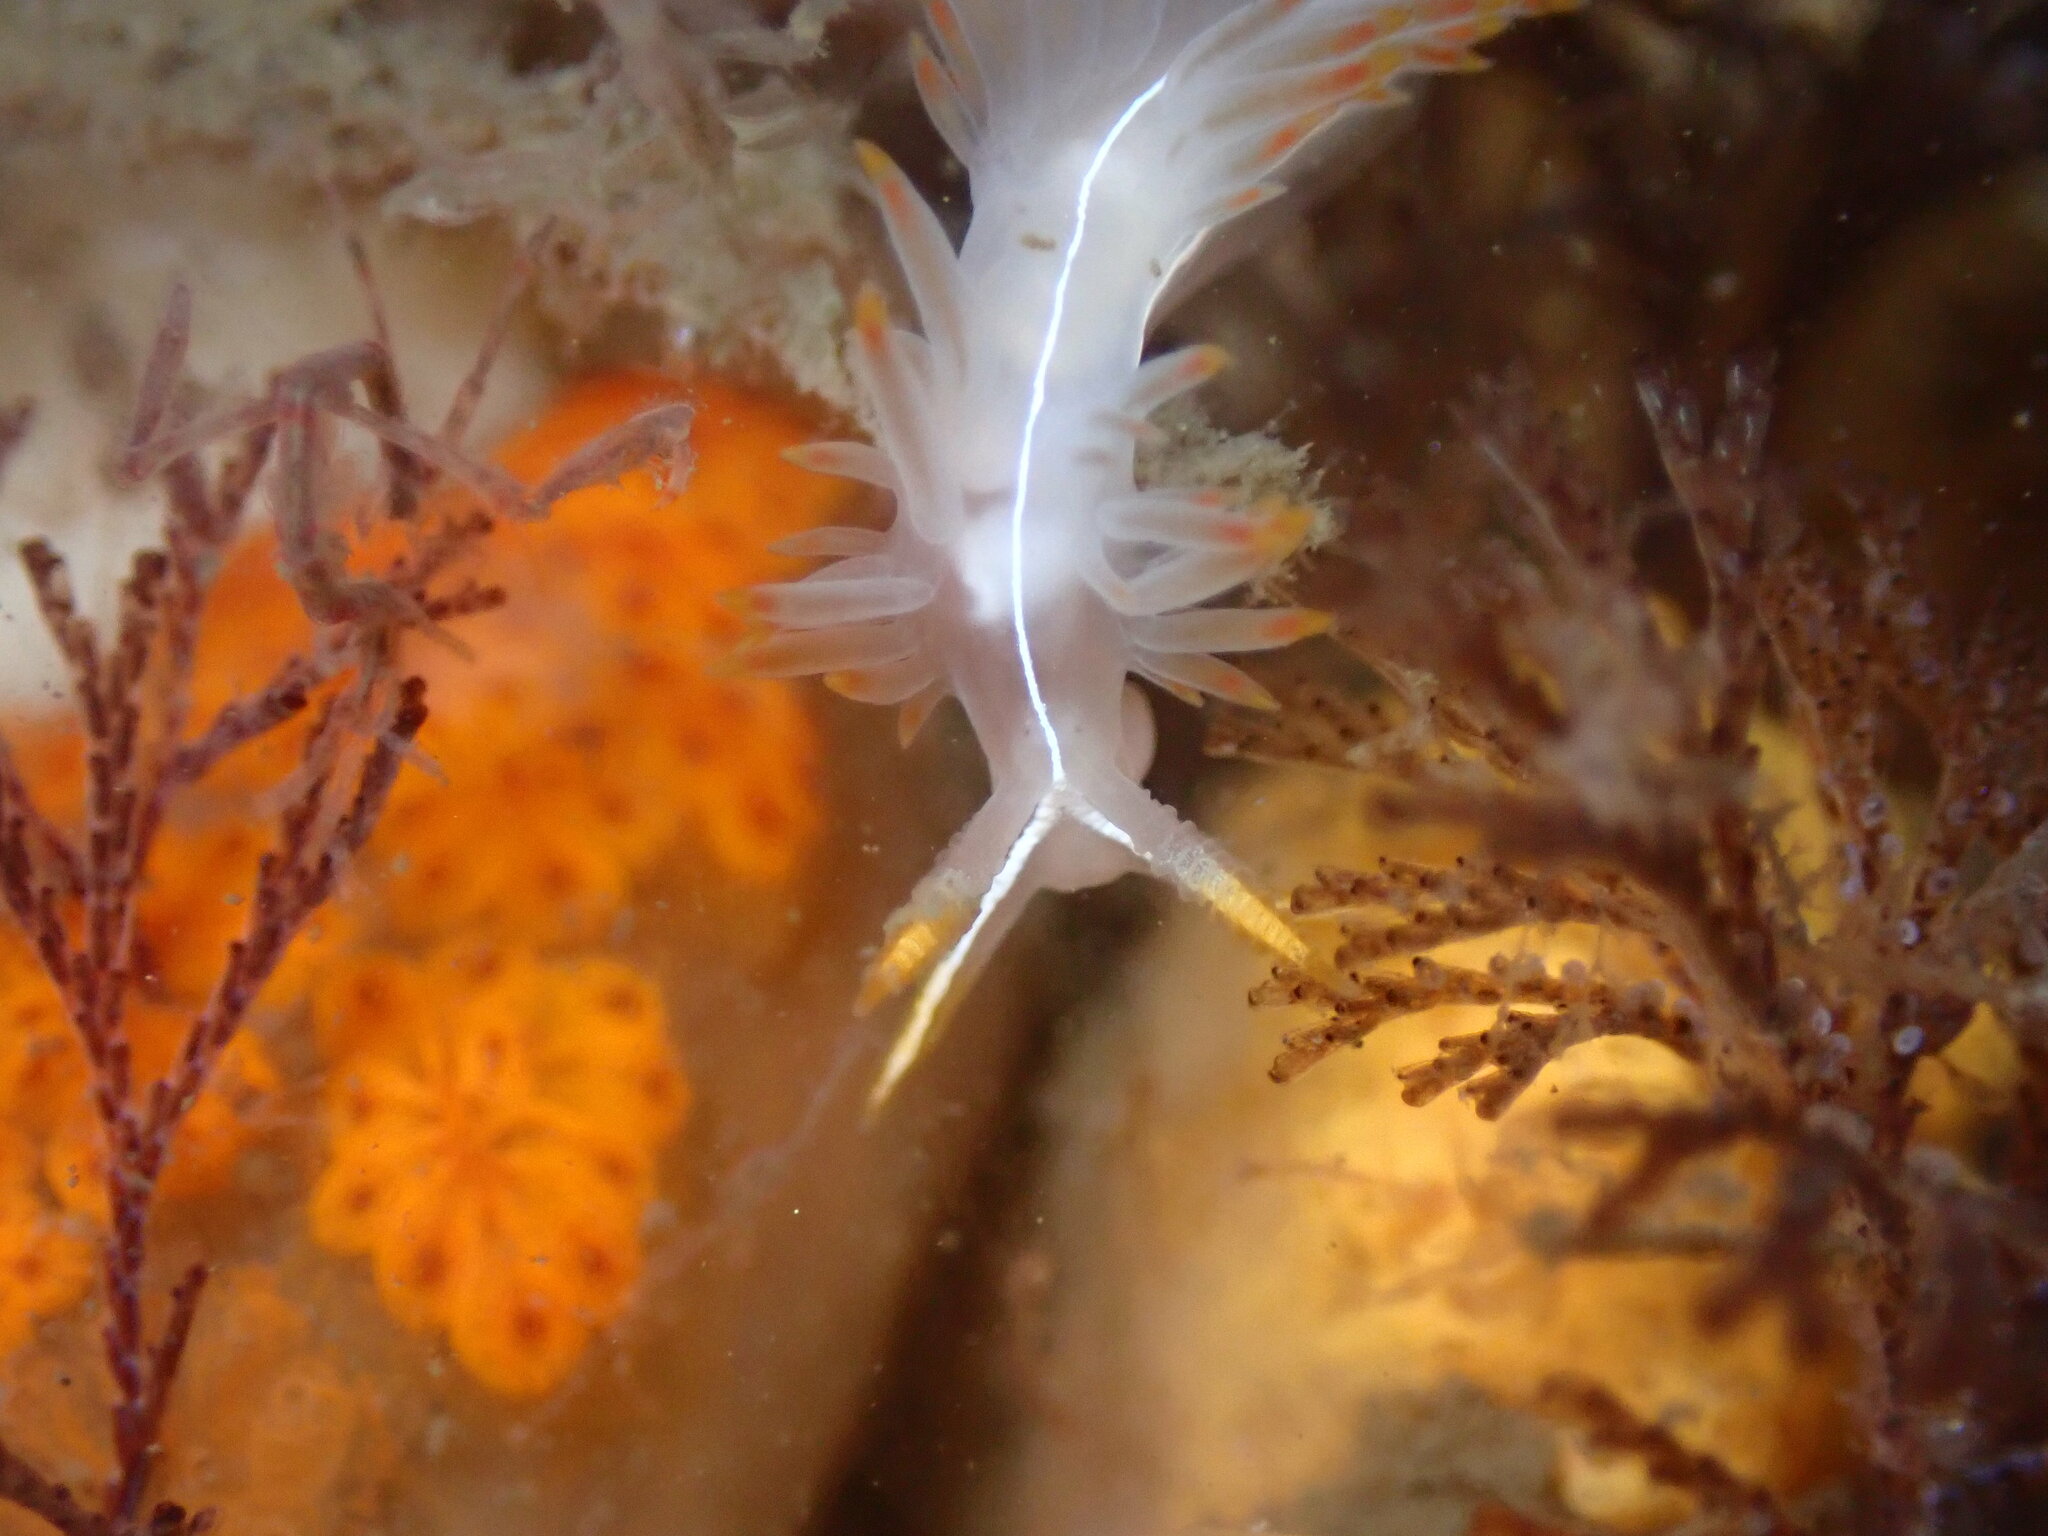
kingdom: Animalia
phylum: Mollusca
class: Gastropoda
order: Nudibranchia
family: Coryphellidae
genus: Coryphella
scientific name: Coryphella trilineata
